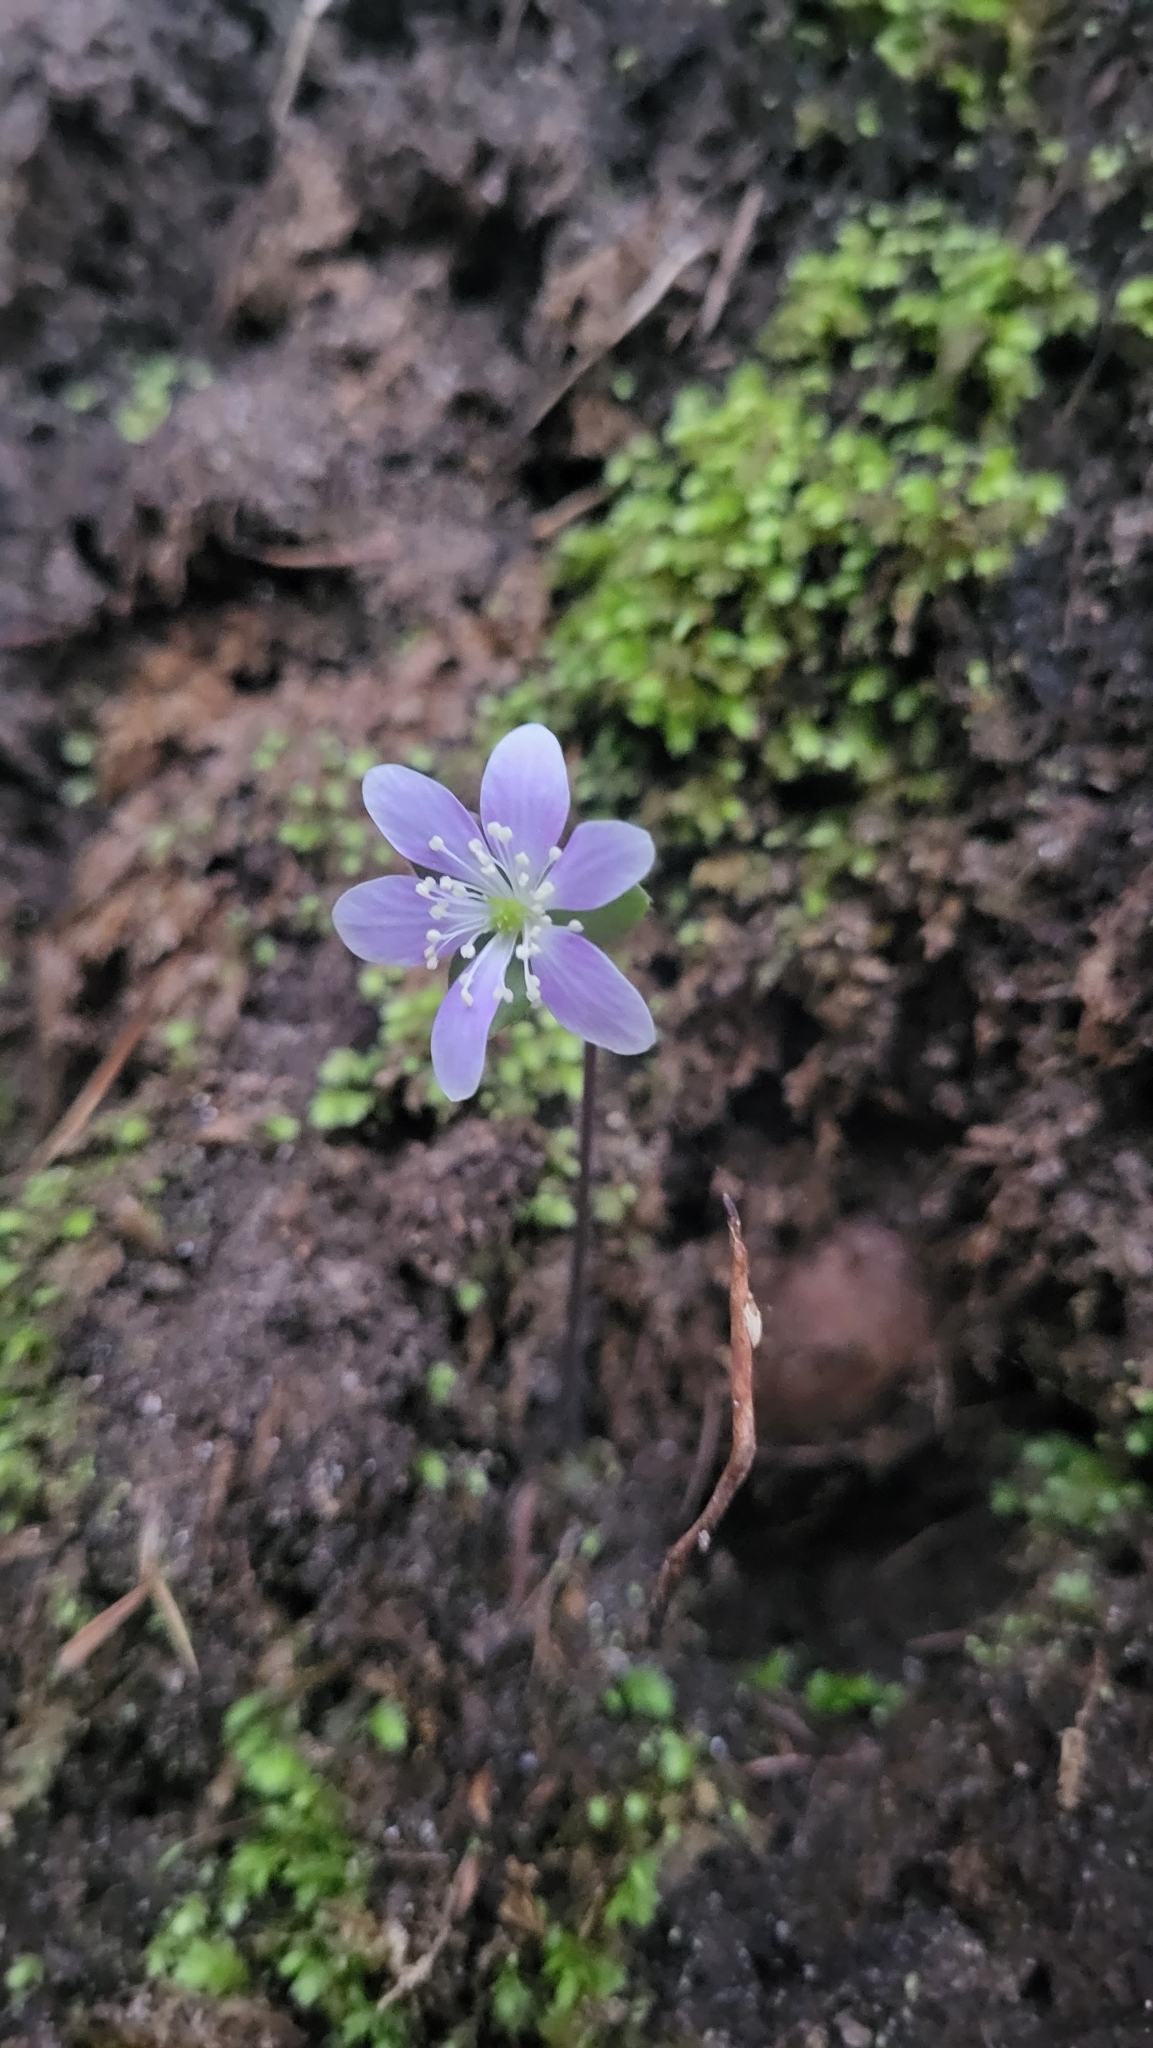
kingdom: Plantae
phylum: Tracheophyta
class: Magnoliopsida
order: Ranunculales
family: Ranunculaceae
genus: Hepatica
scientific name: Hepatica americana
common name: American hepatica
